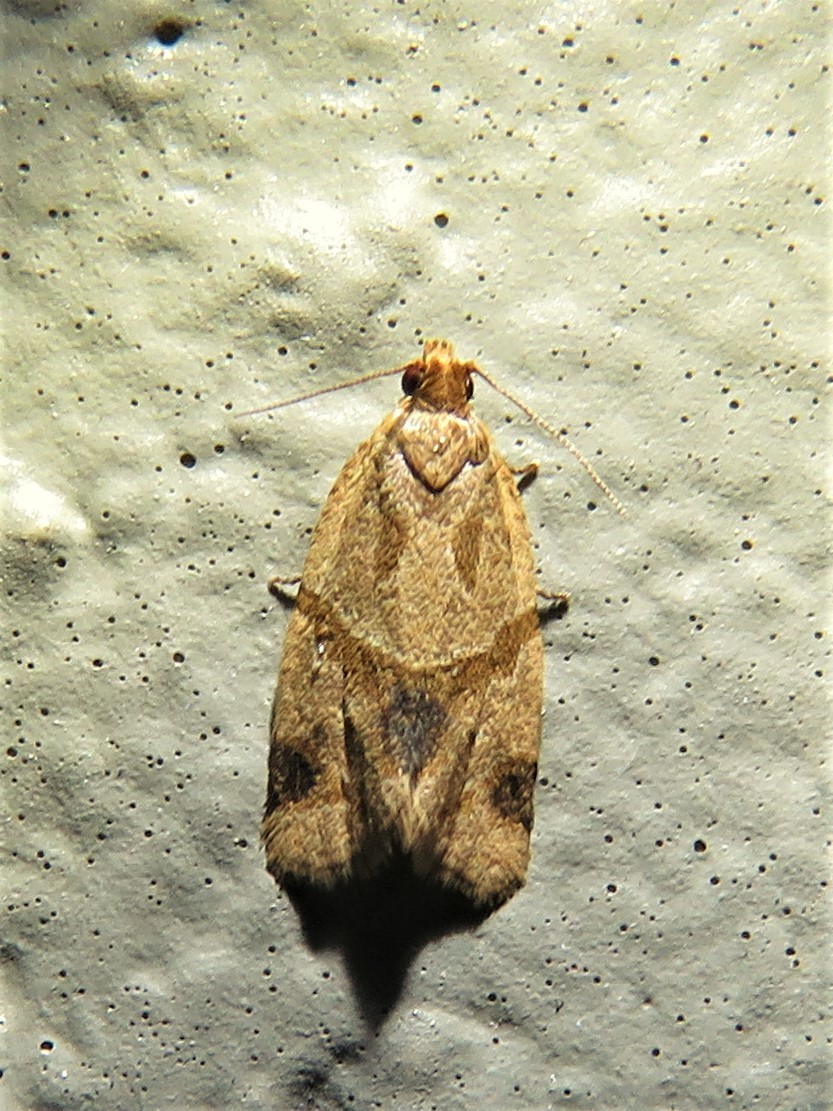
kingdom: Animalia
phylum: Arthropoda
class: Insecta
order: Lepidoptera
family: Tortricidae
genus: Clepsis
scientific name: Clepsis peritana
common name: Garden tortrix
